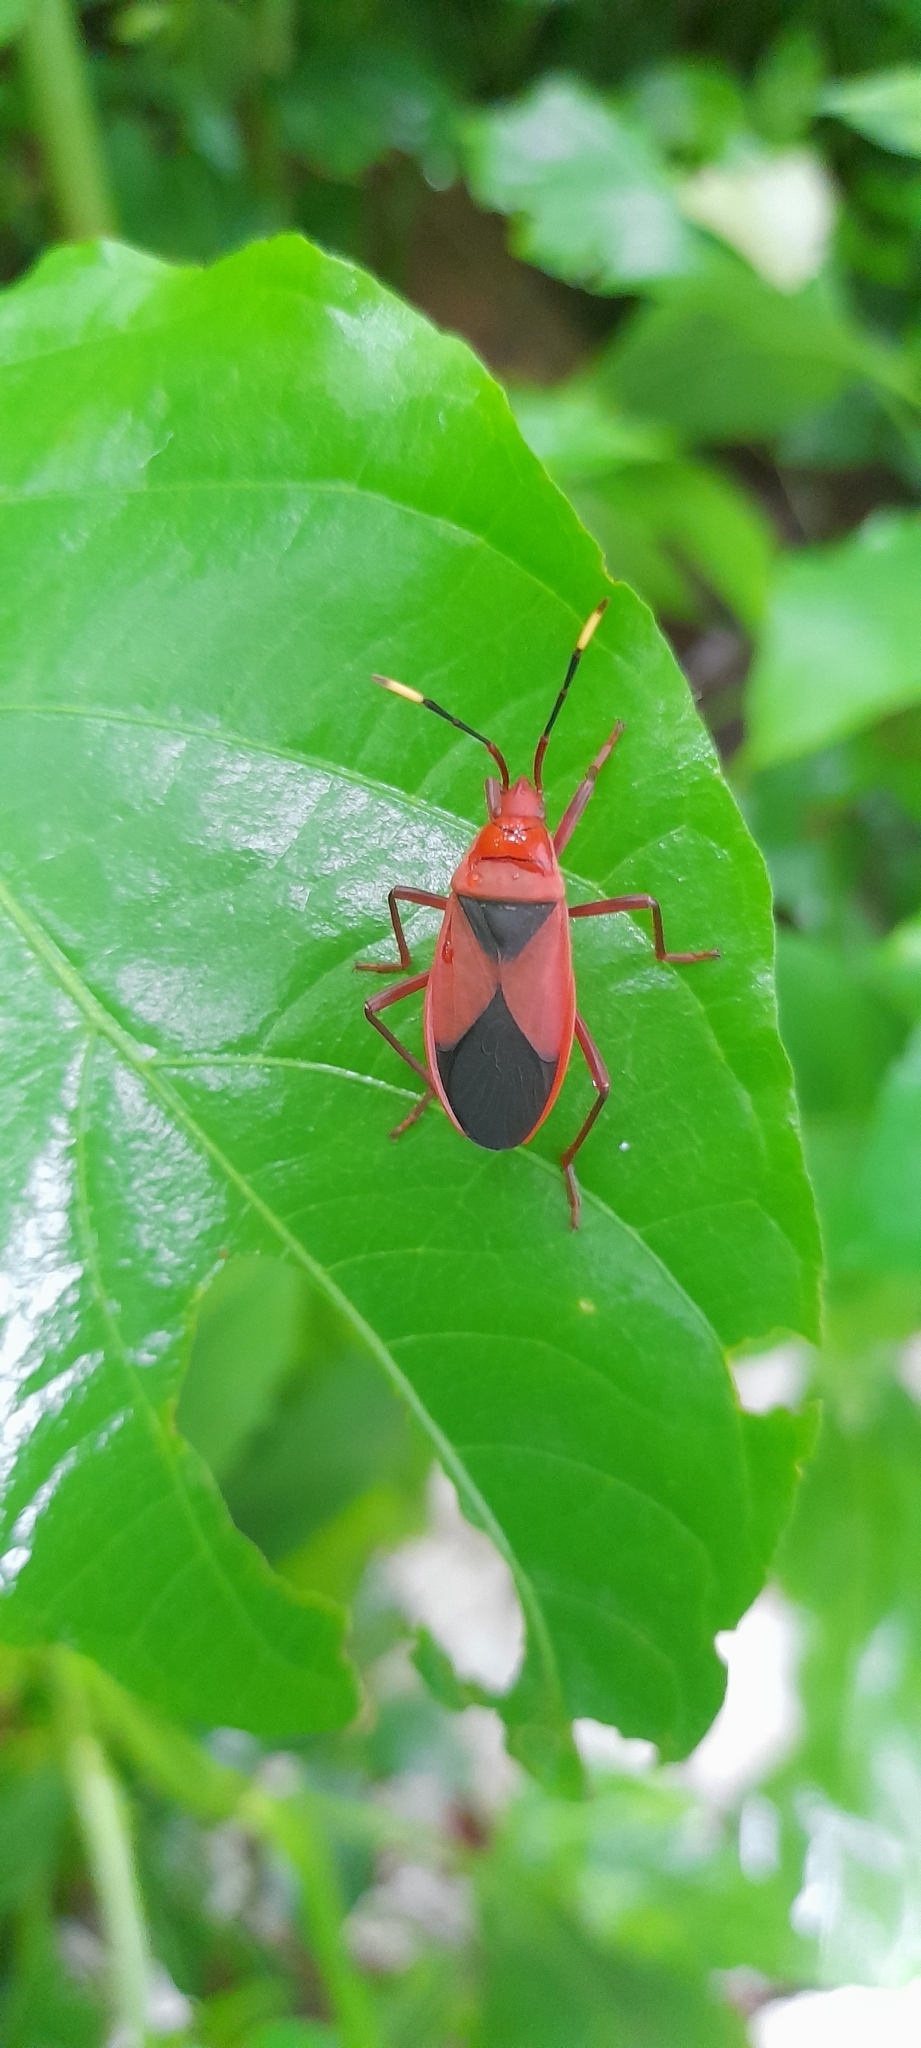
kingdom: Animalia
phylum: Arthropoda
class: Insecta
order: Hemiptera
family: Pyrrhocoridae
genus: Probergrothius
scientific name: Probergrothius
